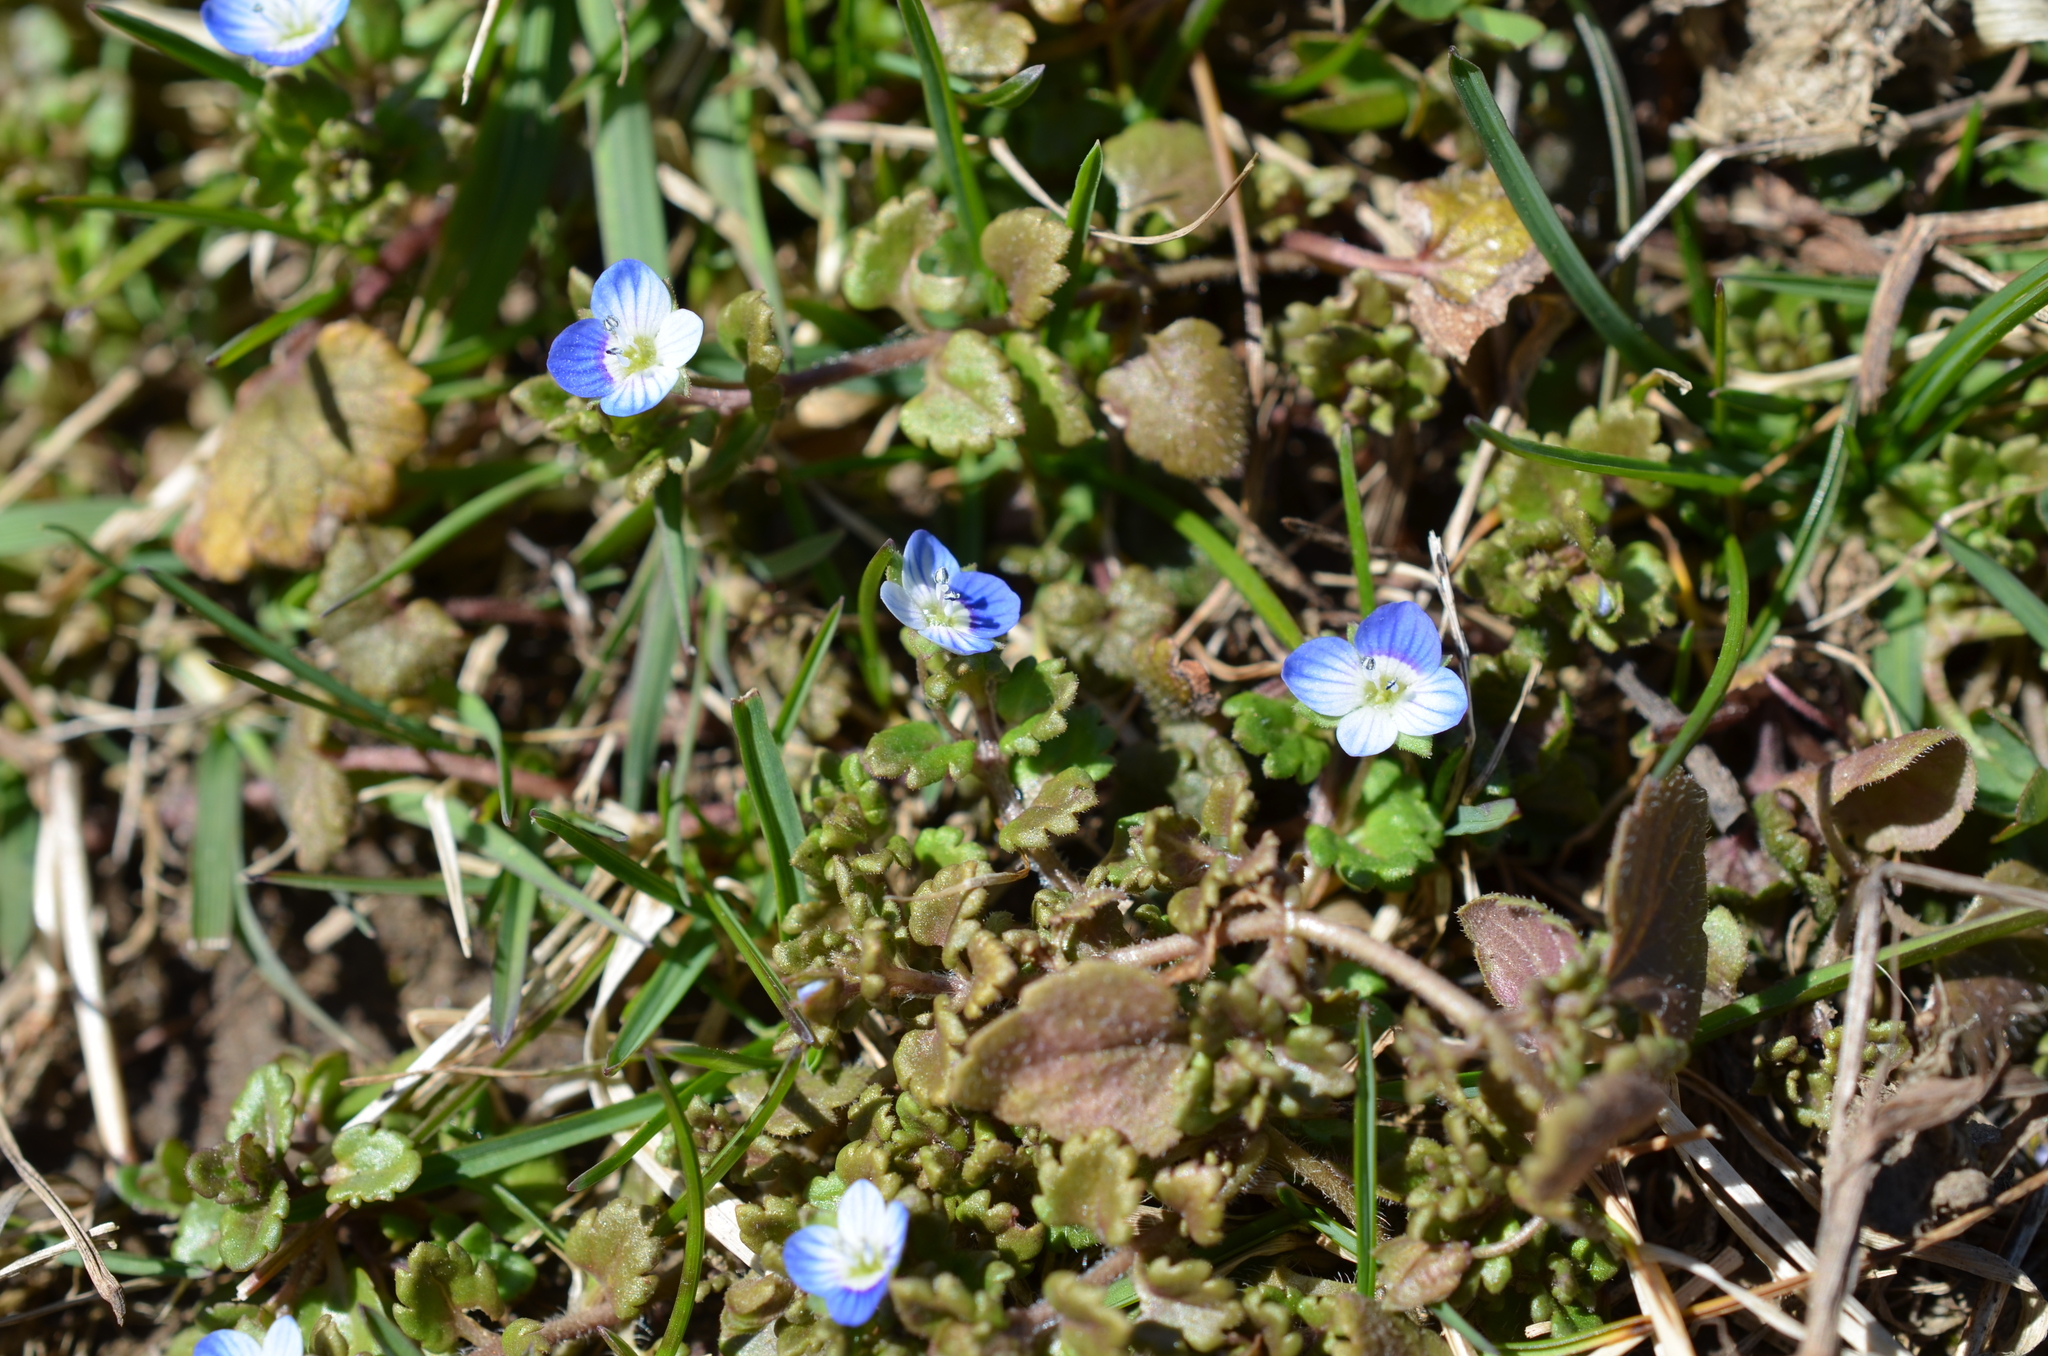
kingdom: Plantae
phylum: Tracheophyta
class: Magnoliopsida
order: Lamiales
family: Plantaginaceae
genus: Veronica
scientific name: Veronica persica
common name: Common field-speedwell
